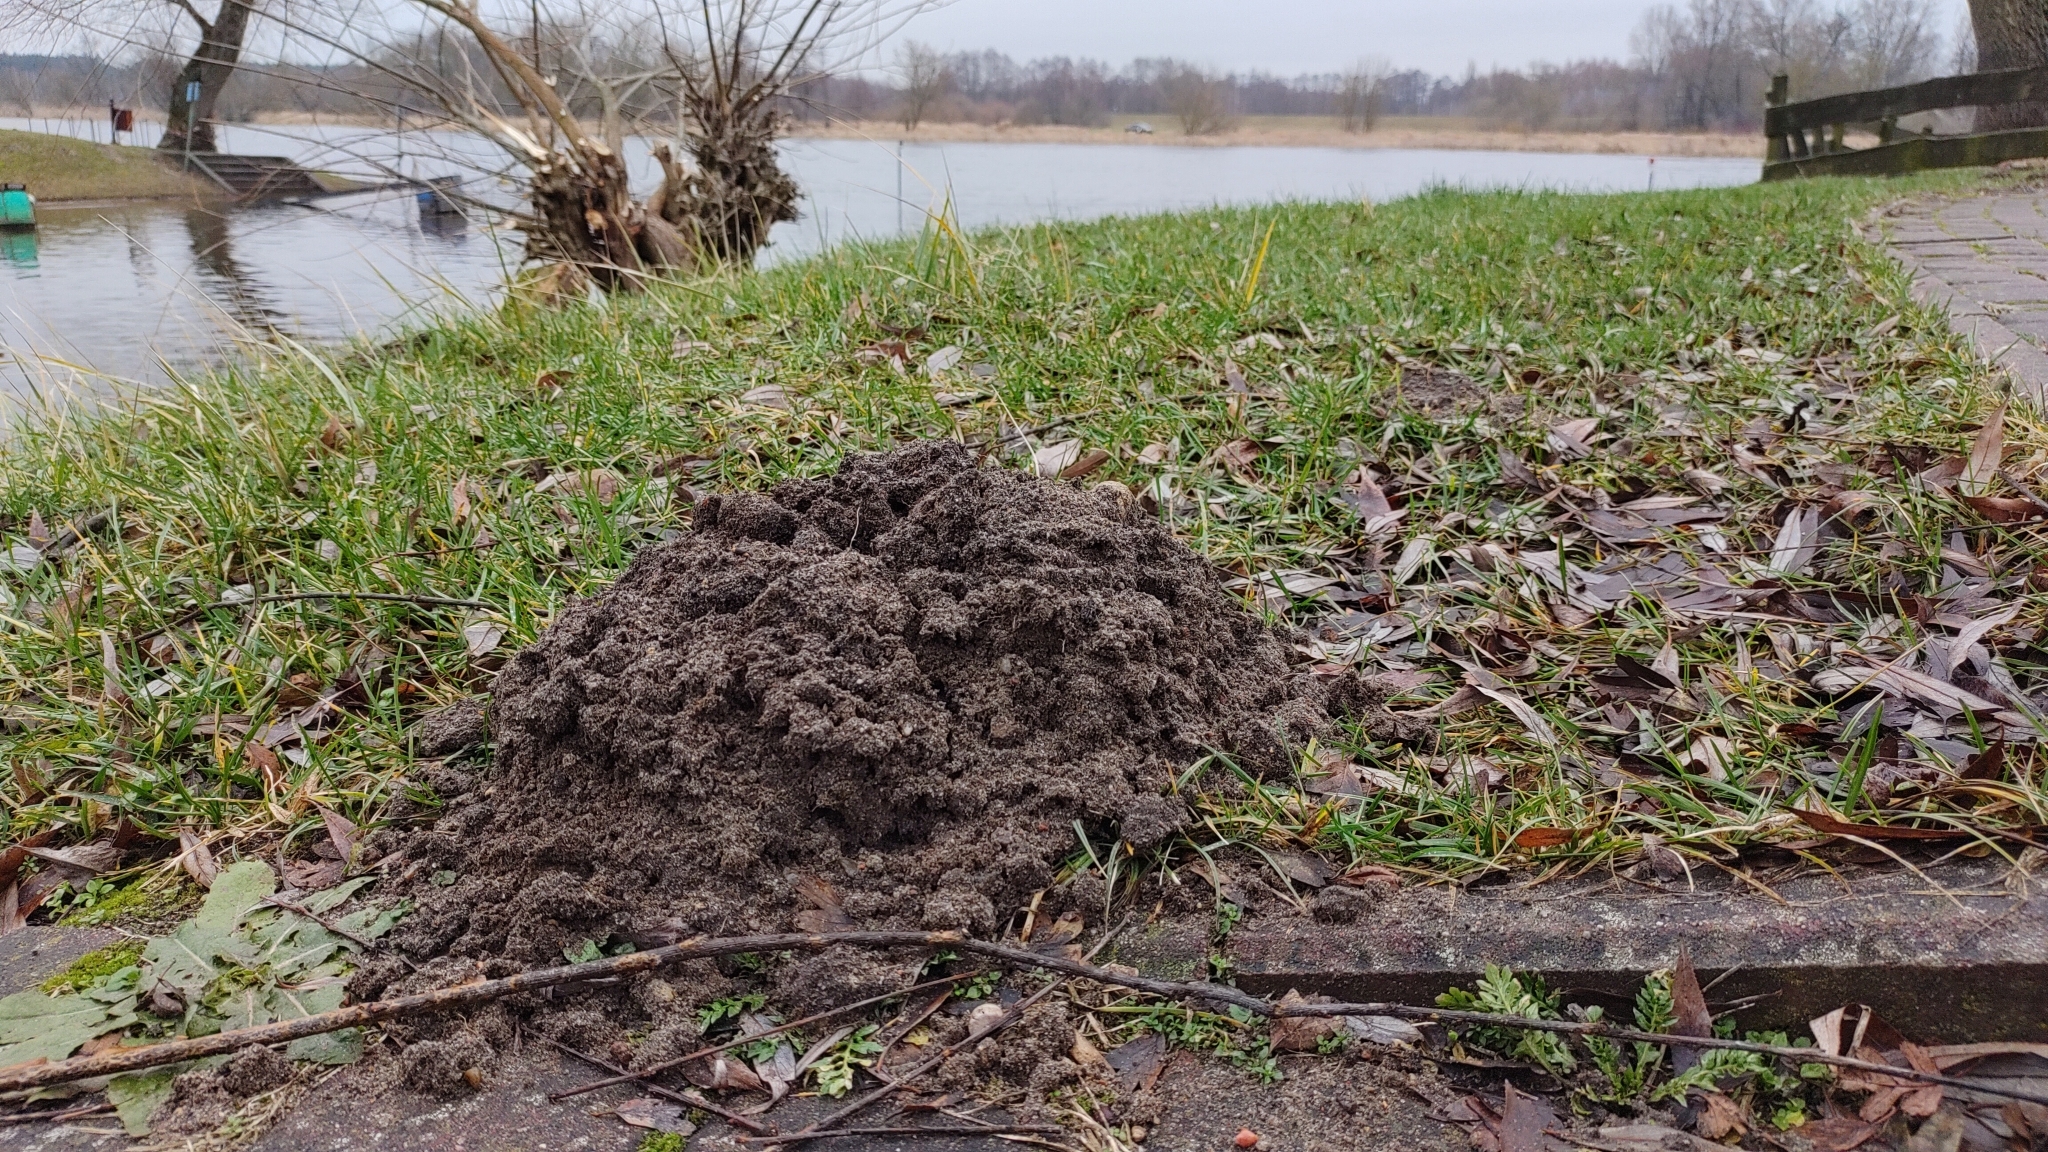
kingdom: Animalia
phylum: Chordata
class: Mammalia
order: Soricomorpha
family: Talpidae
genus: Talpa
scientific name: Talpa europaea
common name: European mole
